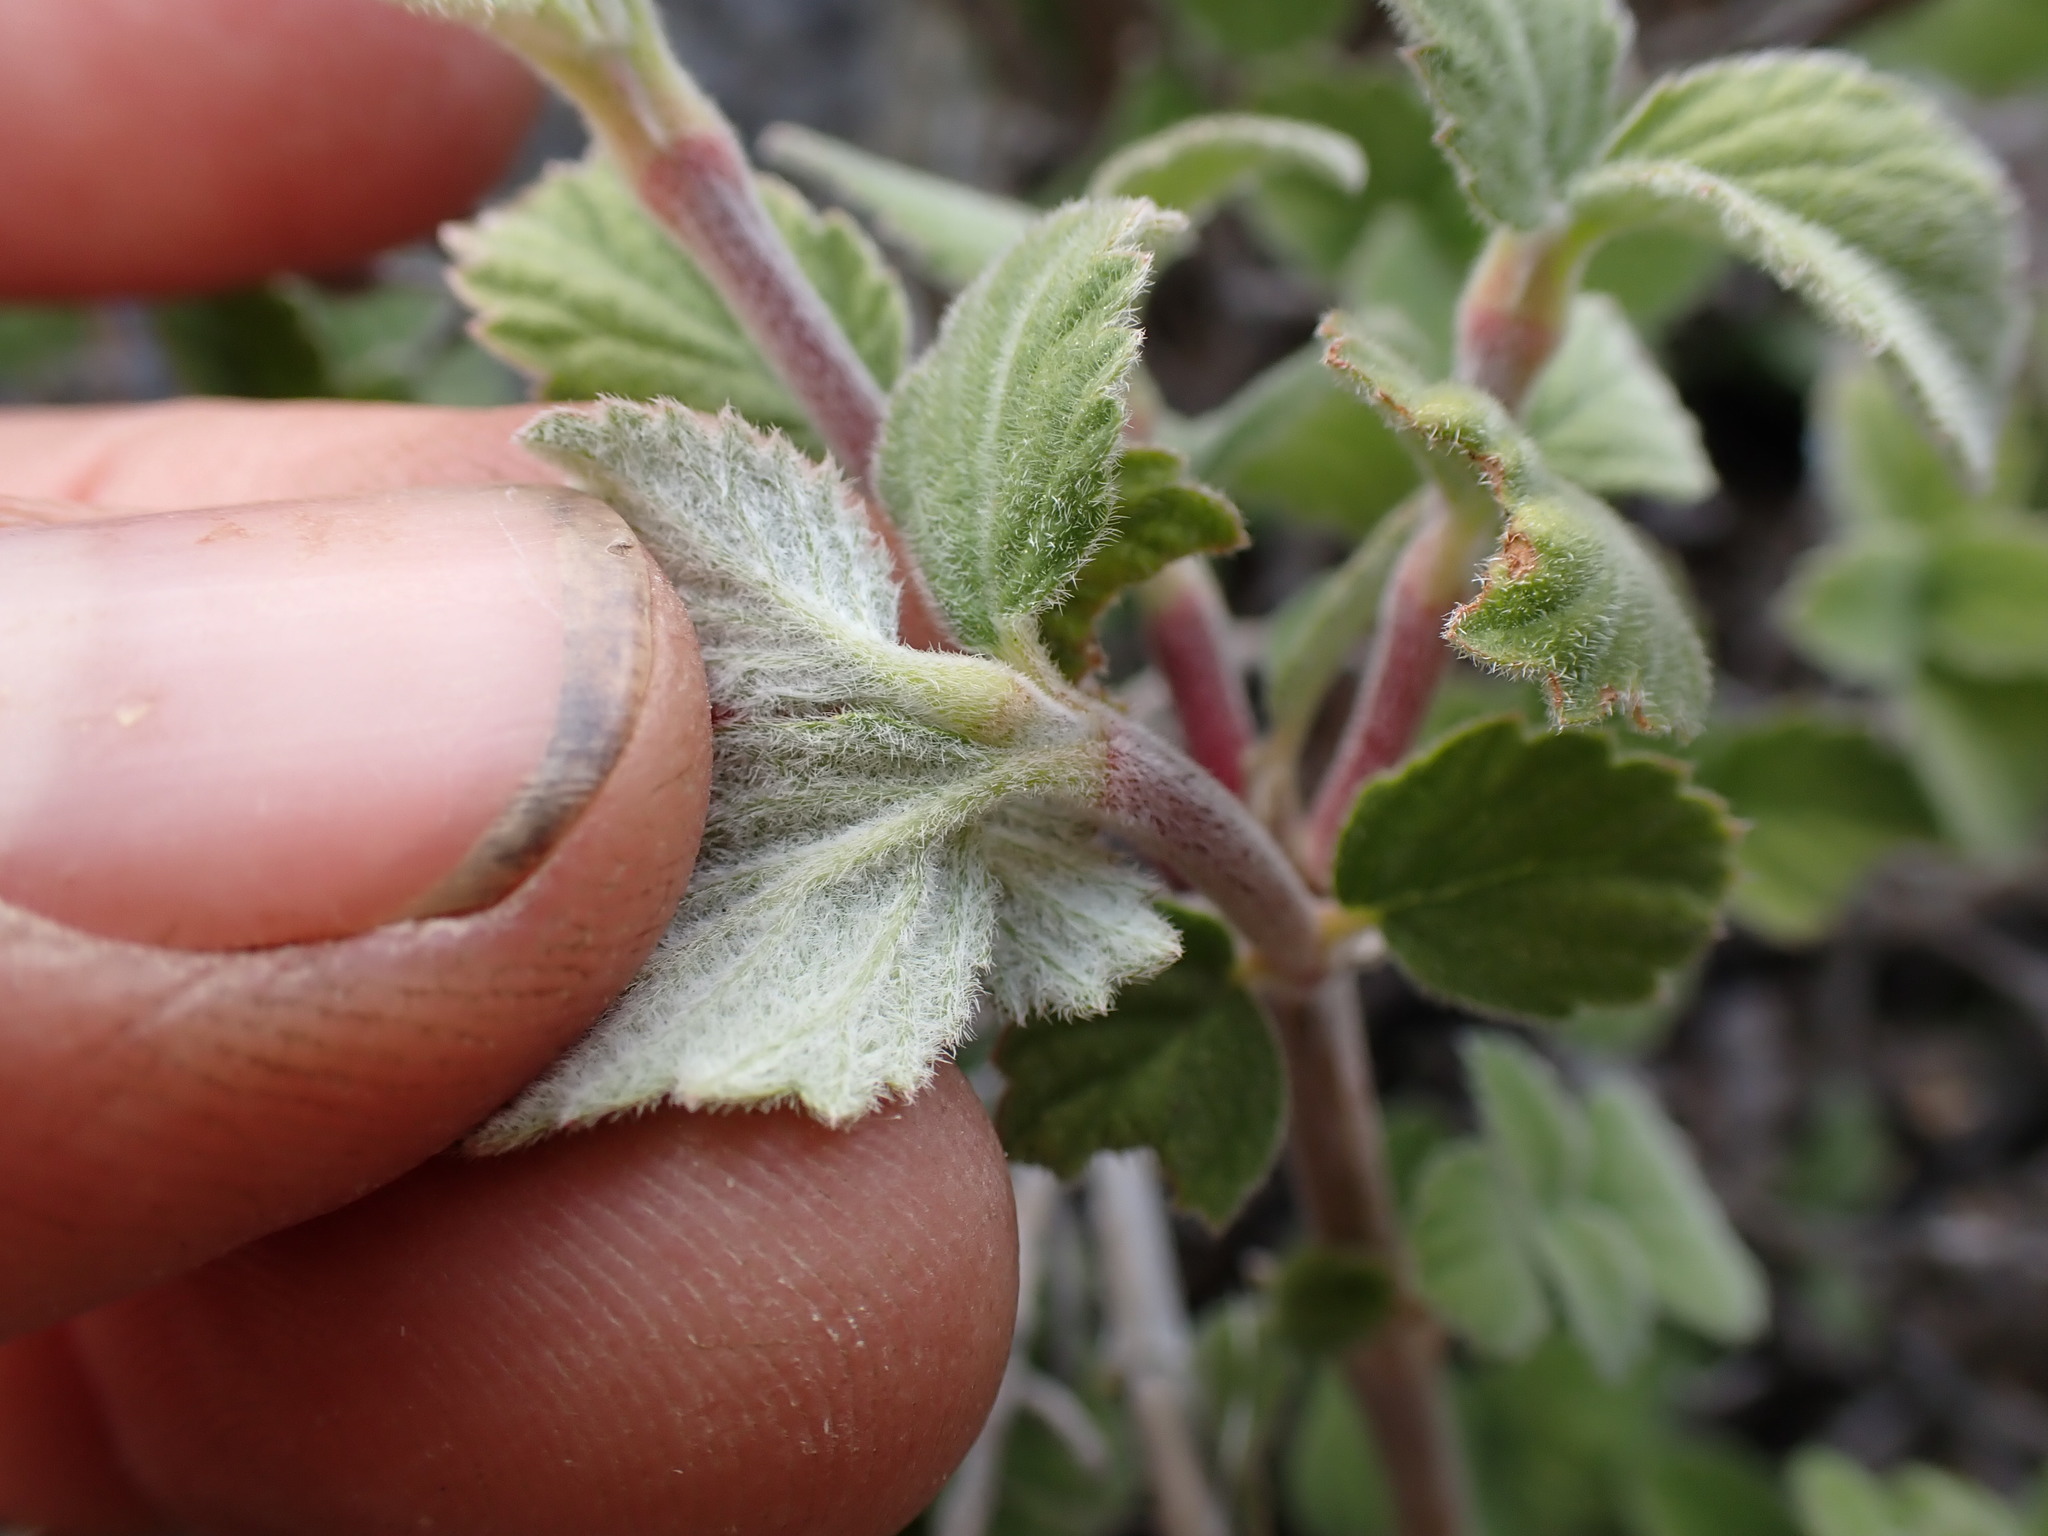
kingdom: Plantae
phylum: Tracheophyta
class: Magnoliopsida
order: Cornales
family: Hydrangeaceae
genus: Jamesia
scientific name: Jamesia americana
